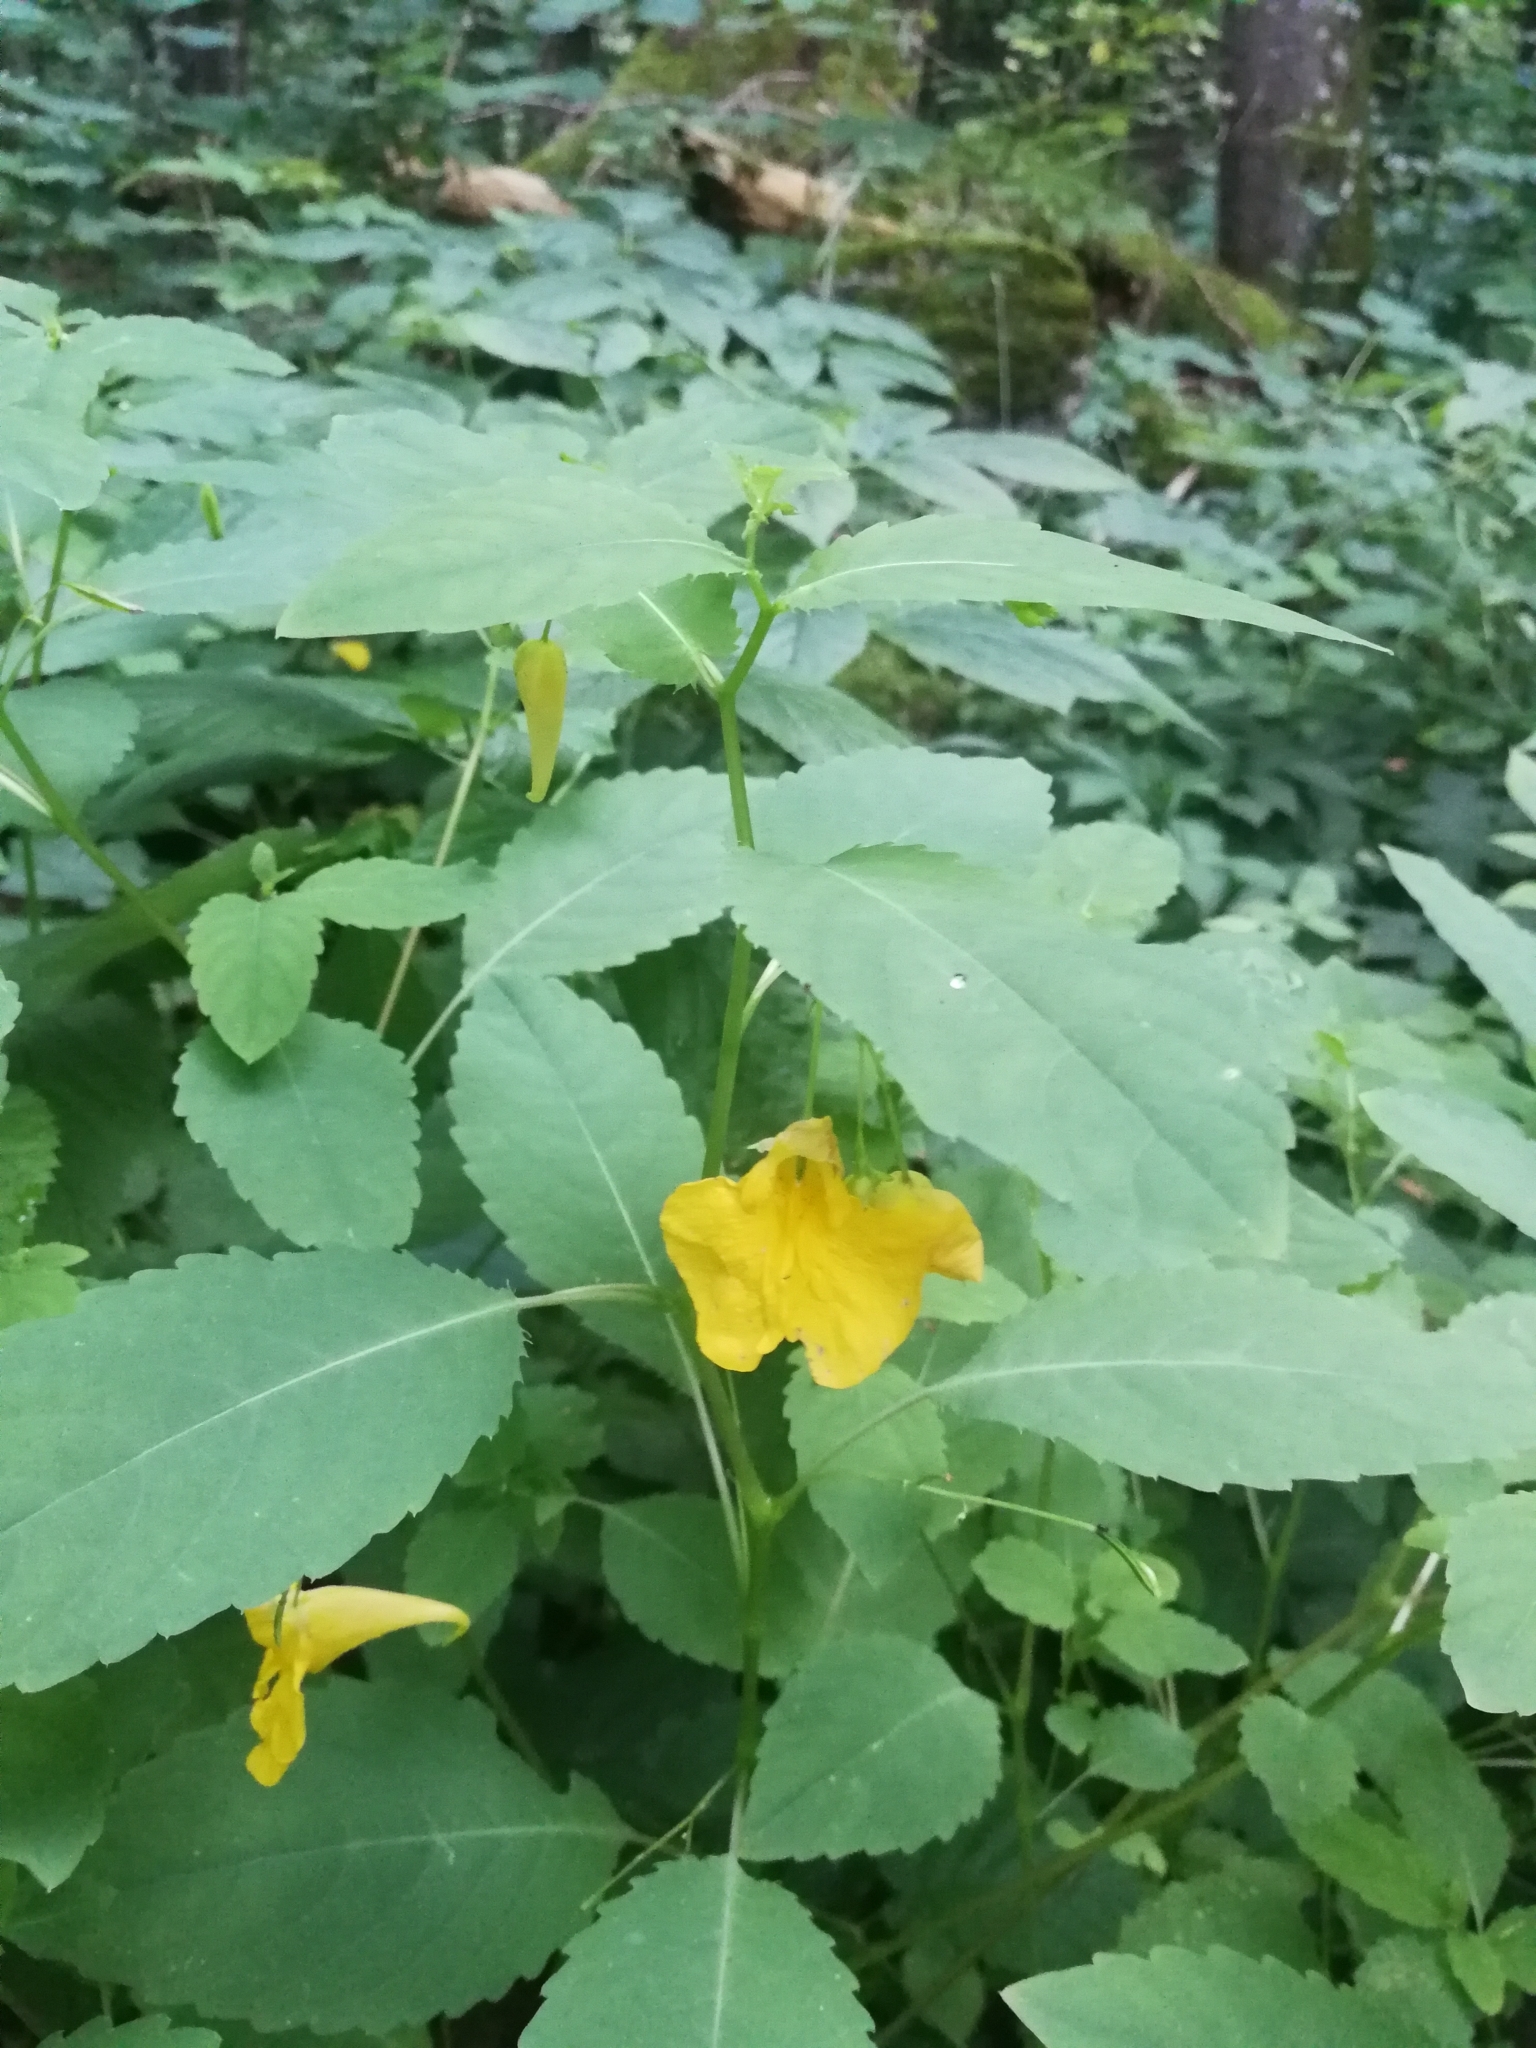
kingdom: Plantae
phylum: Tracheophyta
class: Magnoliopsida
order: Ericales
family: Balsaminaceae
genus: Impatiens
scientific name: Impatiens noli-tangere
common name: Touch-me-not balsam
